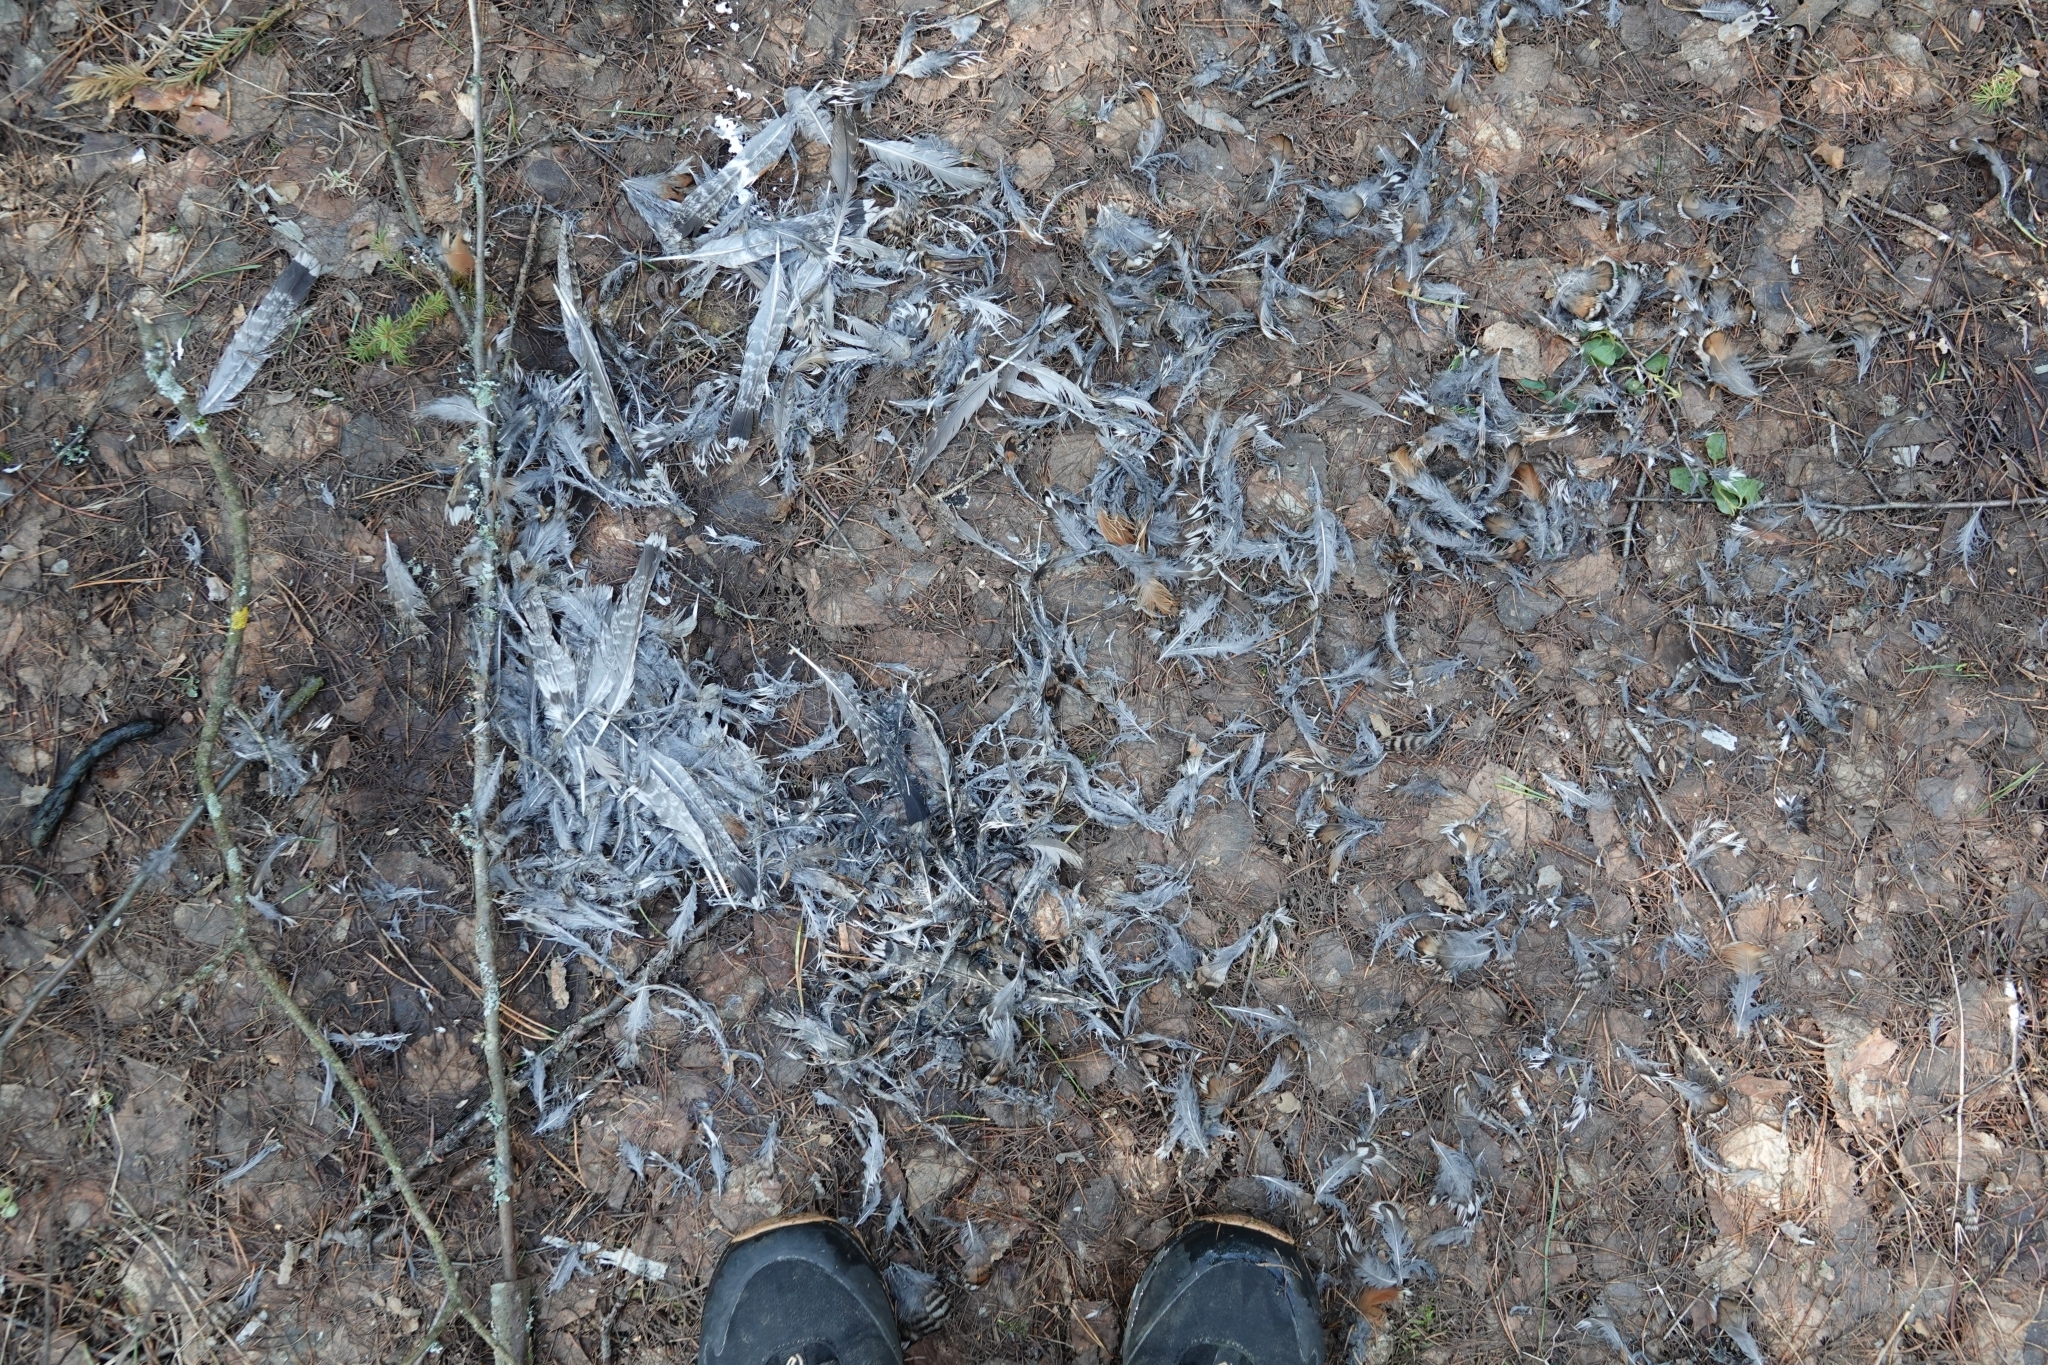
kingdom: Animalia
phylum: Chordata
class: Aves
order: Galliformes
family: Phasianidae
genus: Tetrastes
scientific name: Tetrastes bonasia
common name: Hazel grouse
